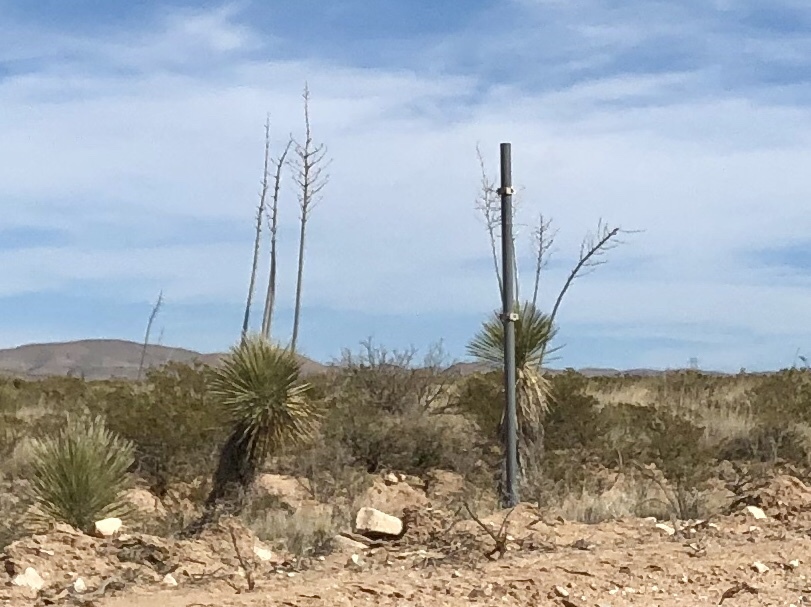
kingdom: Plantae
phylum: Tracheophyta
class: Liliopsida
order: Asparagales
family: Asparagaceae
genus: Yucca
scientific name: Yucca elata
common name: Palmella
